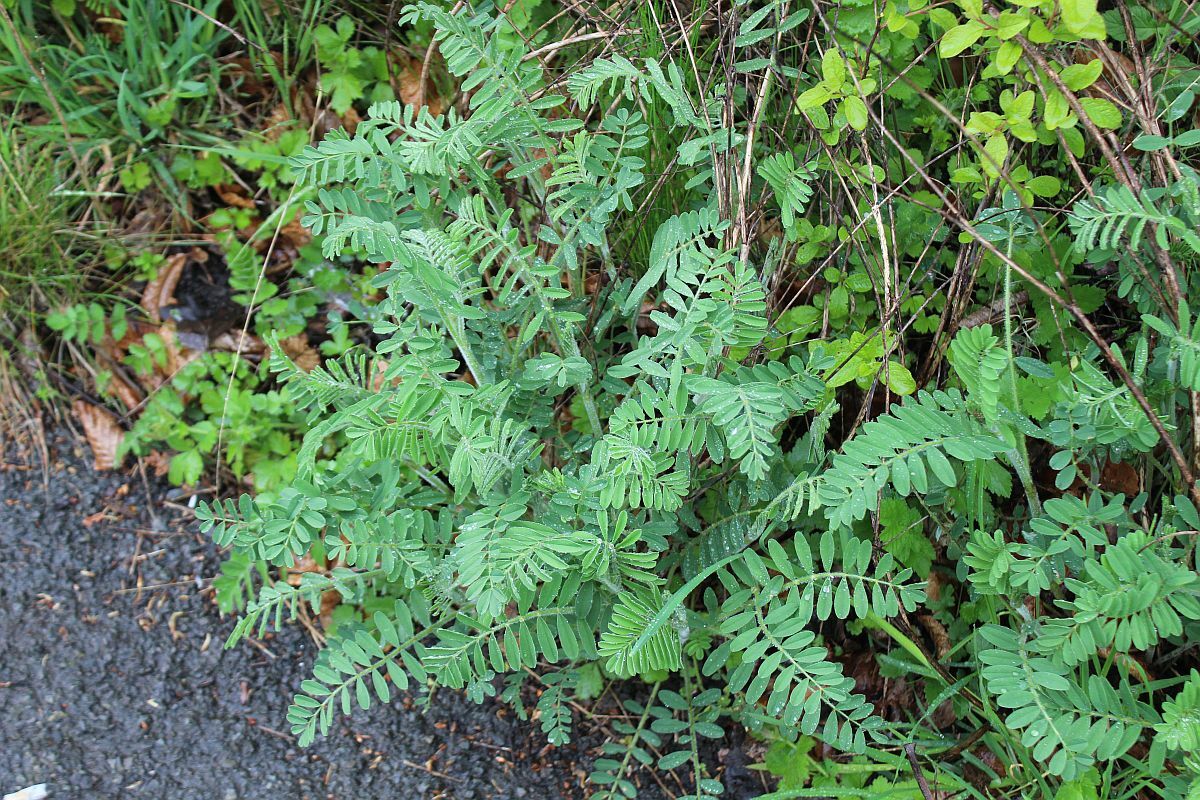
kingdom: Plantae
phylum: Tracheophyta
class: Magnoliopsida
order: Fabales
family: Fabaceae
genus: Onobrychis
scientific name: Onobrychis viciifolia
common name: Sainfoin
